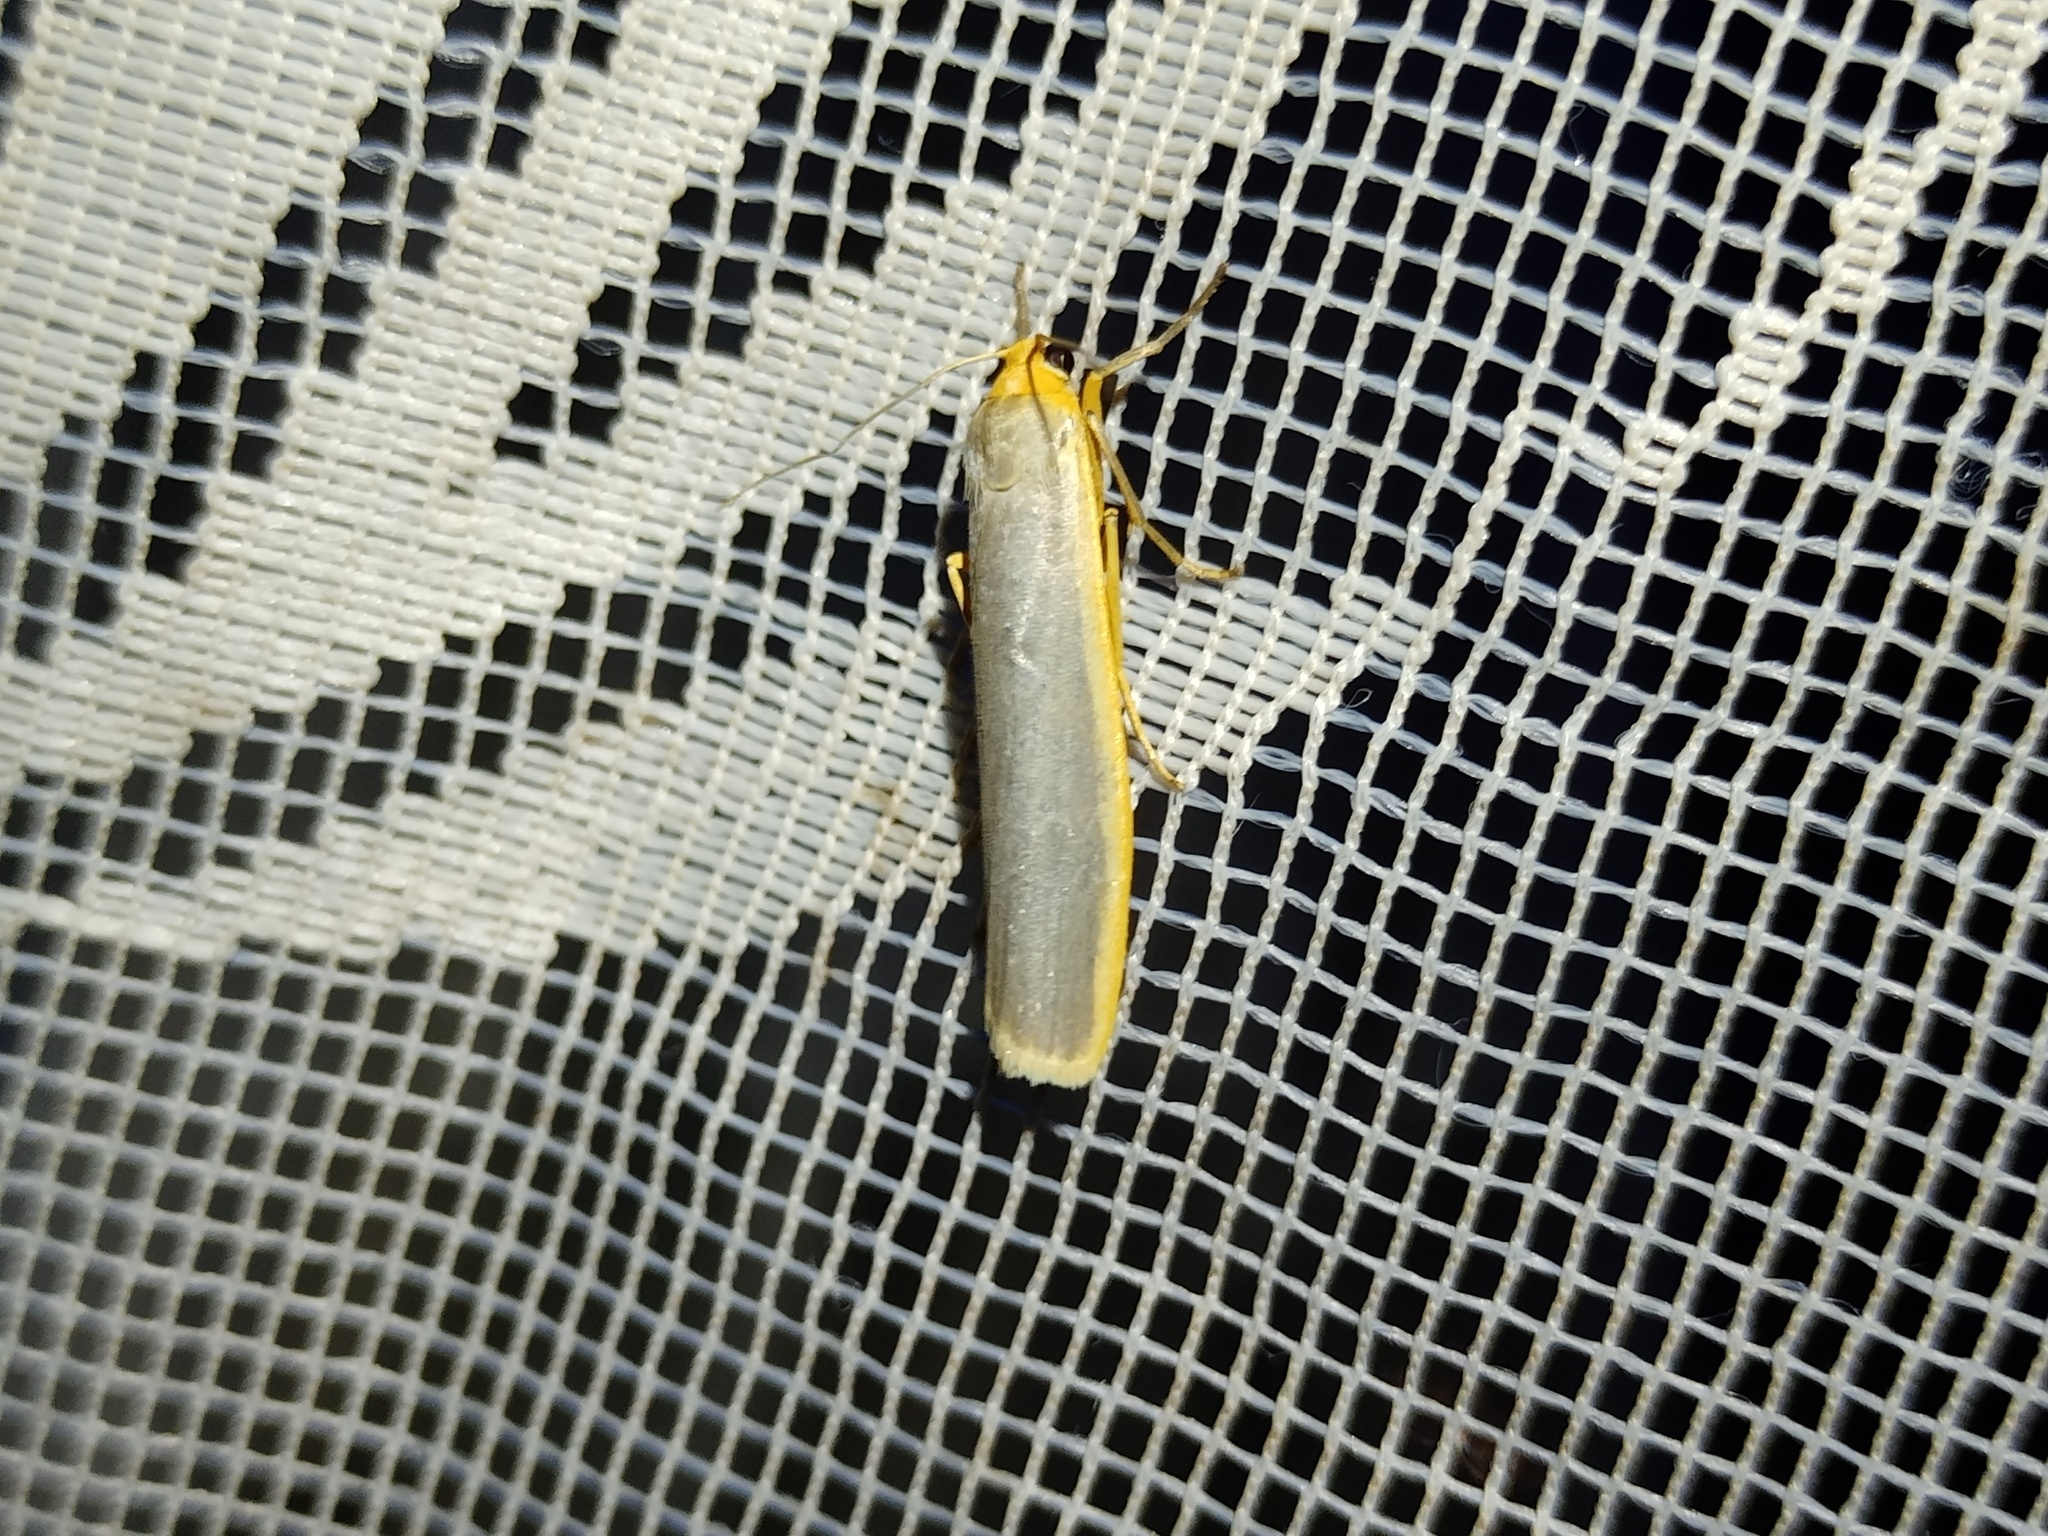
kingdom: Animalia
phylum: Arthropoda
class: Insecta
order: Lepidoptera
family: Erebidae
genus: Manulea
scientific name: Manulea complana
